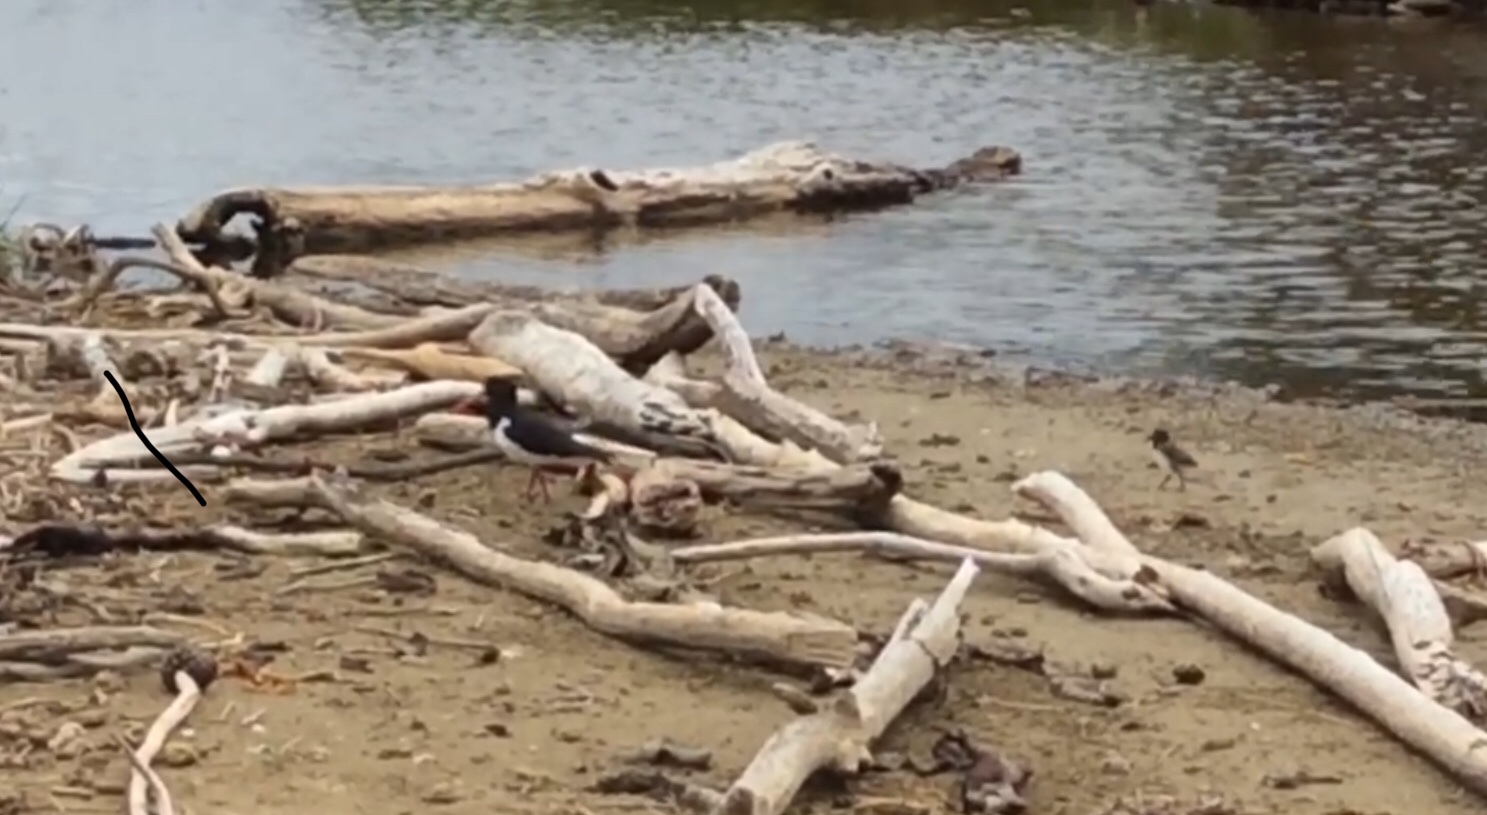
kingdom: Animalia
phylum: Chordata
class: Aves
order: Charadriiformes
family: Haematopodidae
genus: Haematopus
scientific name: Haematopus finschi
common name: South island oystercatcher
